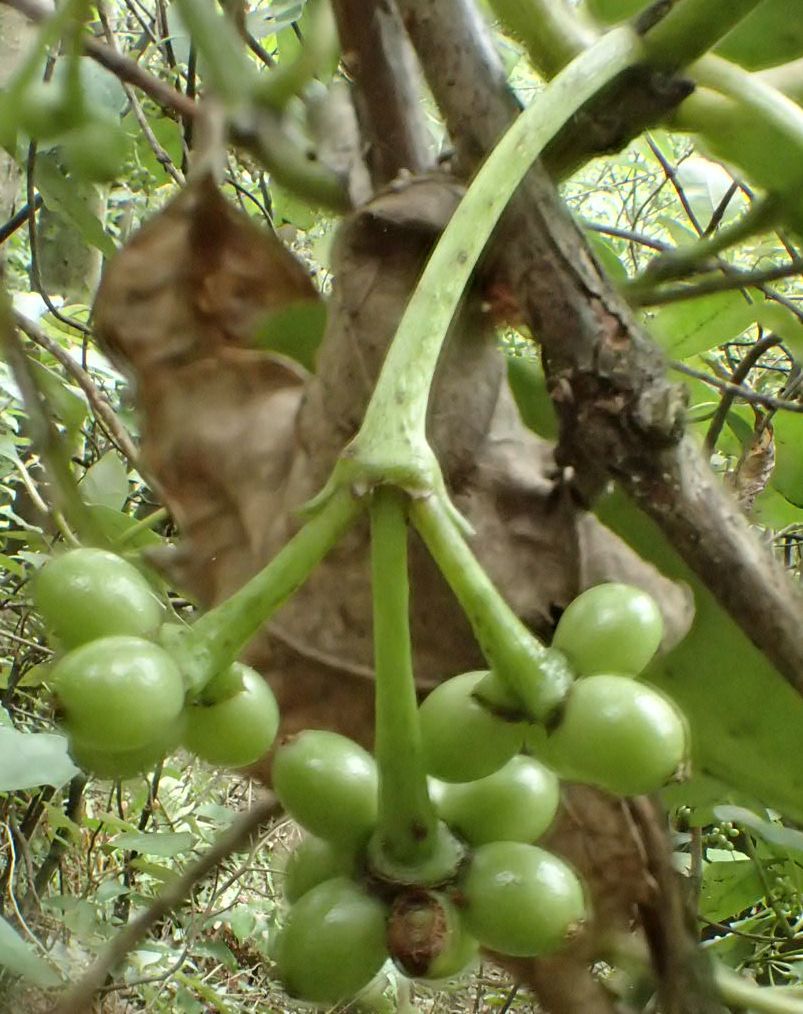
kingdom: Plantae
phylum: Tracheophyta
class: Magnoliopsida
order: Gentianales
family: Rubiaceae
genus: Coprosma
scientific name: Coprosma autumnalis
